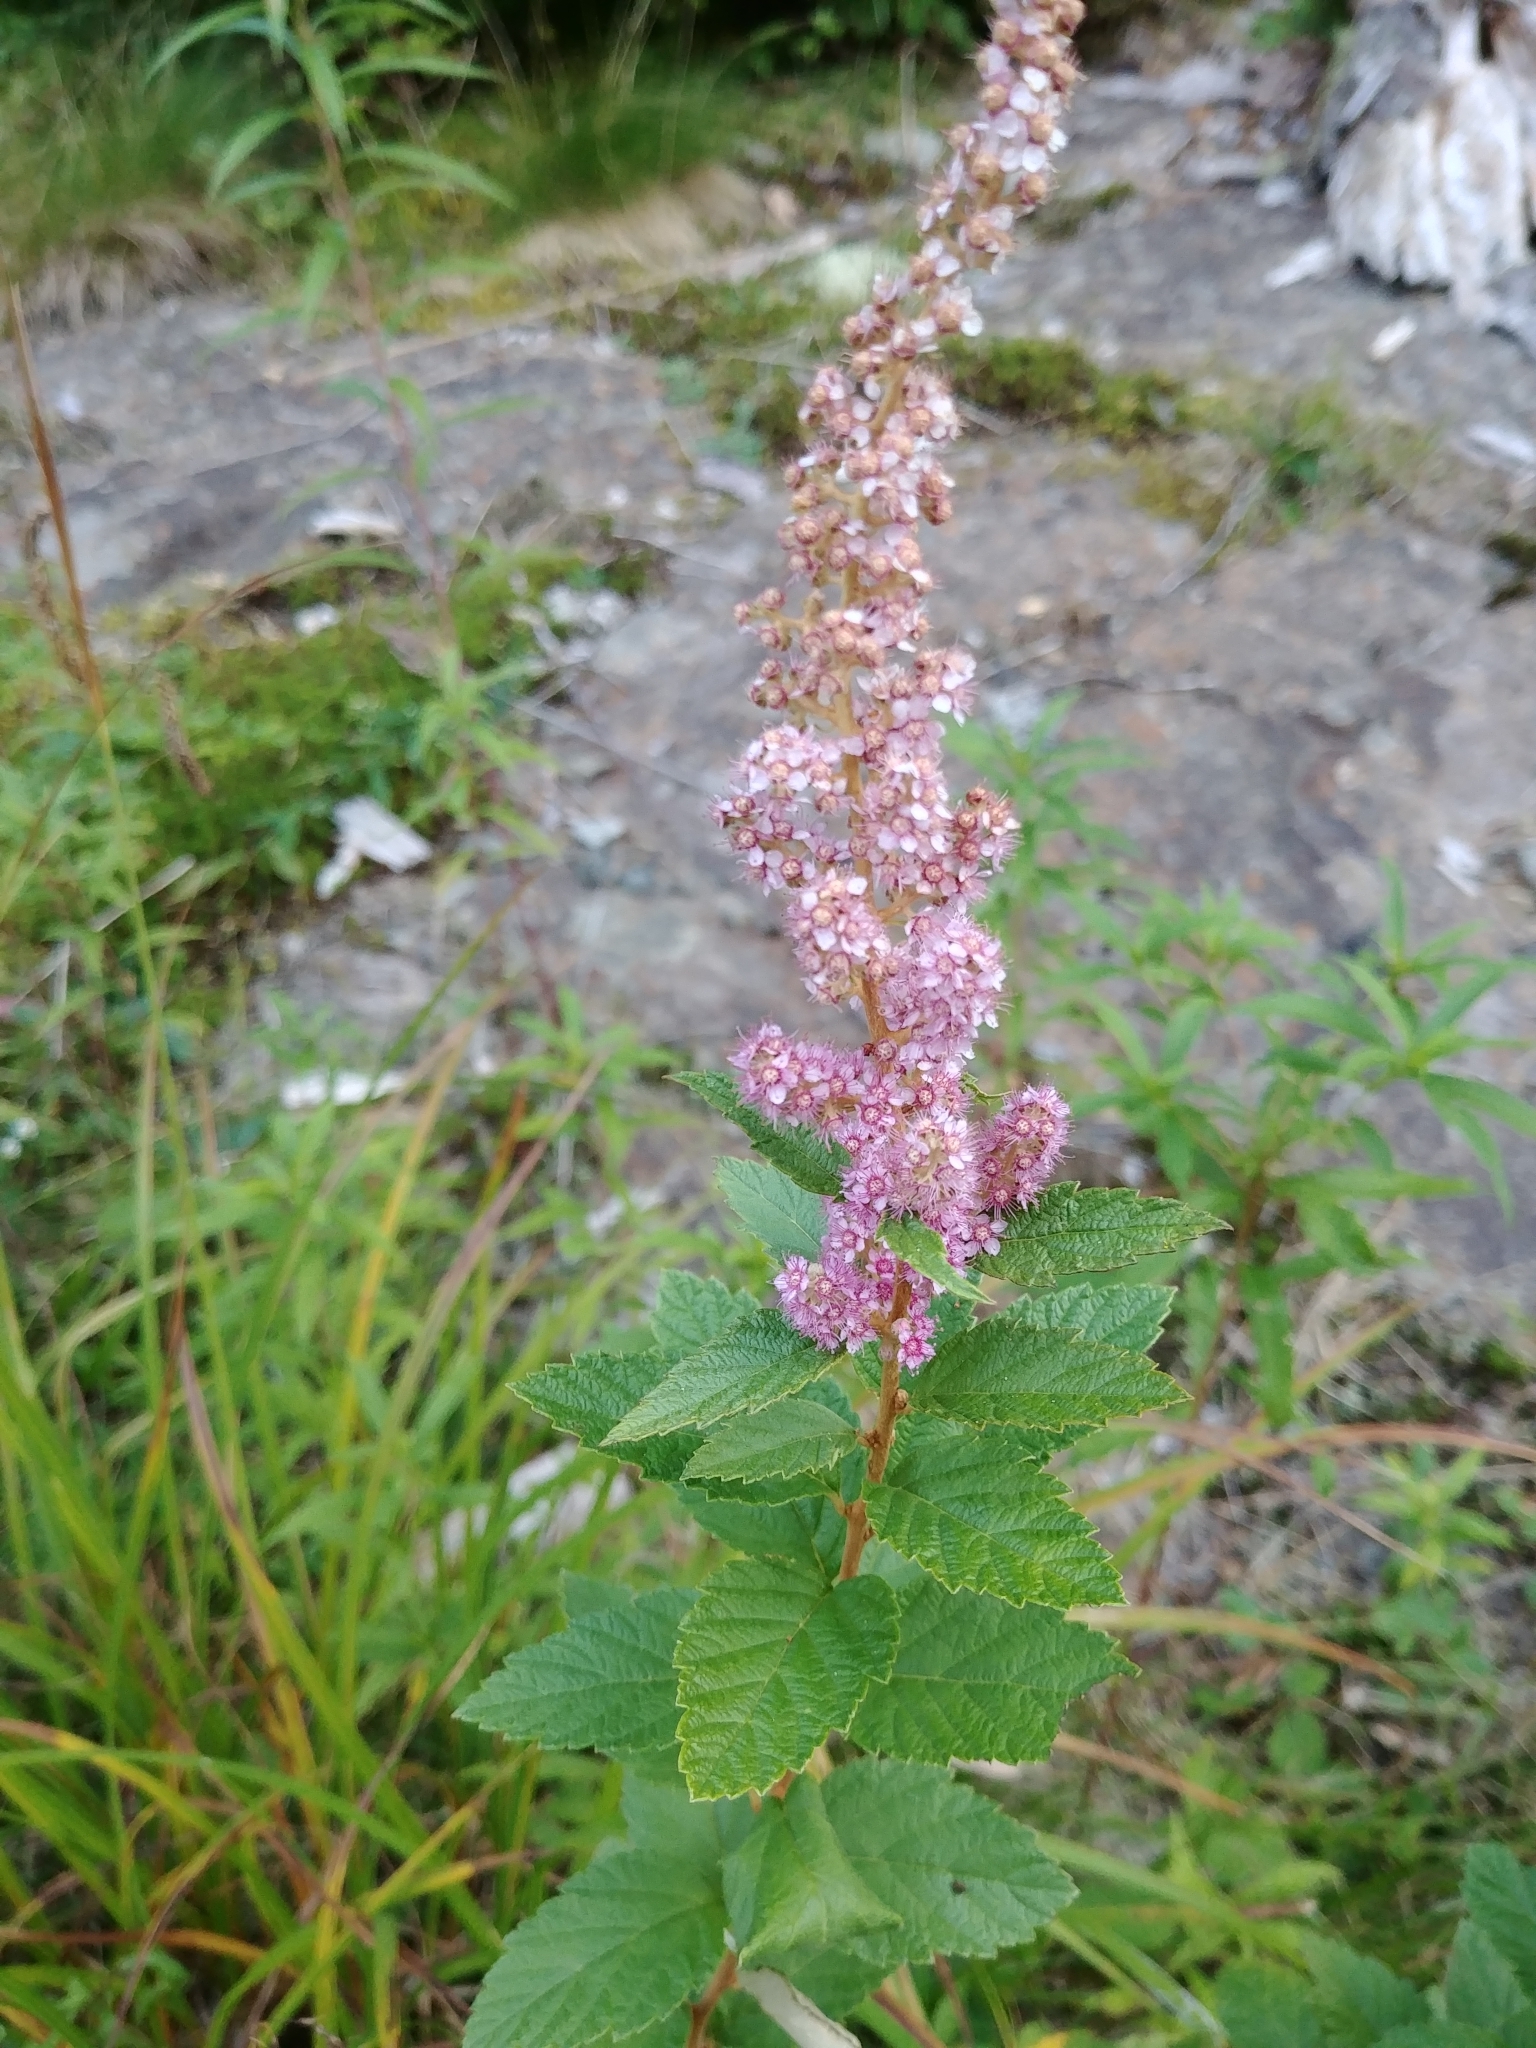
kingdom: Plantae
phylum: Tracheophyta
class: Magnoliopsida
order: Rosales
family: Rosaceae
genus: Spiraea
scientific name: Spiraea tomentosa
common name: Hardhack
